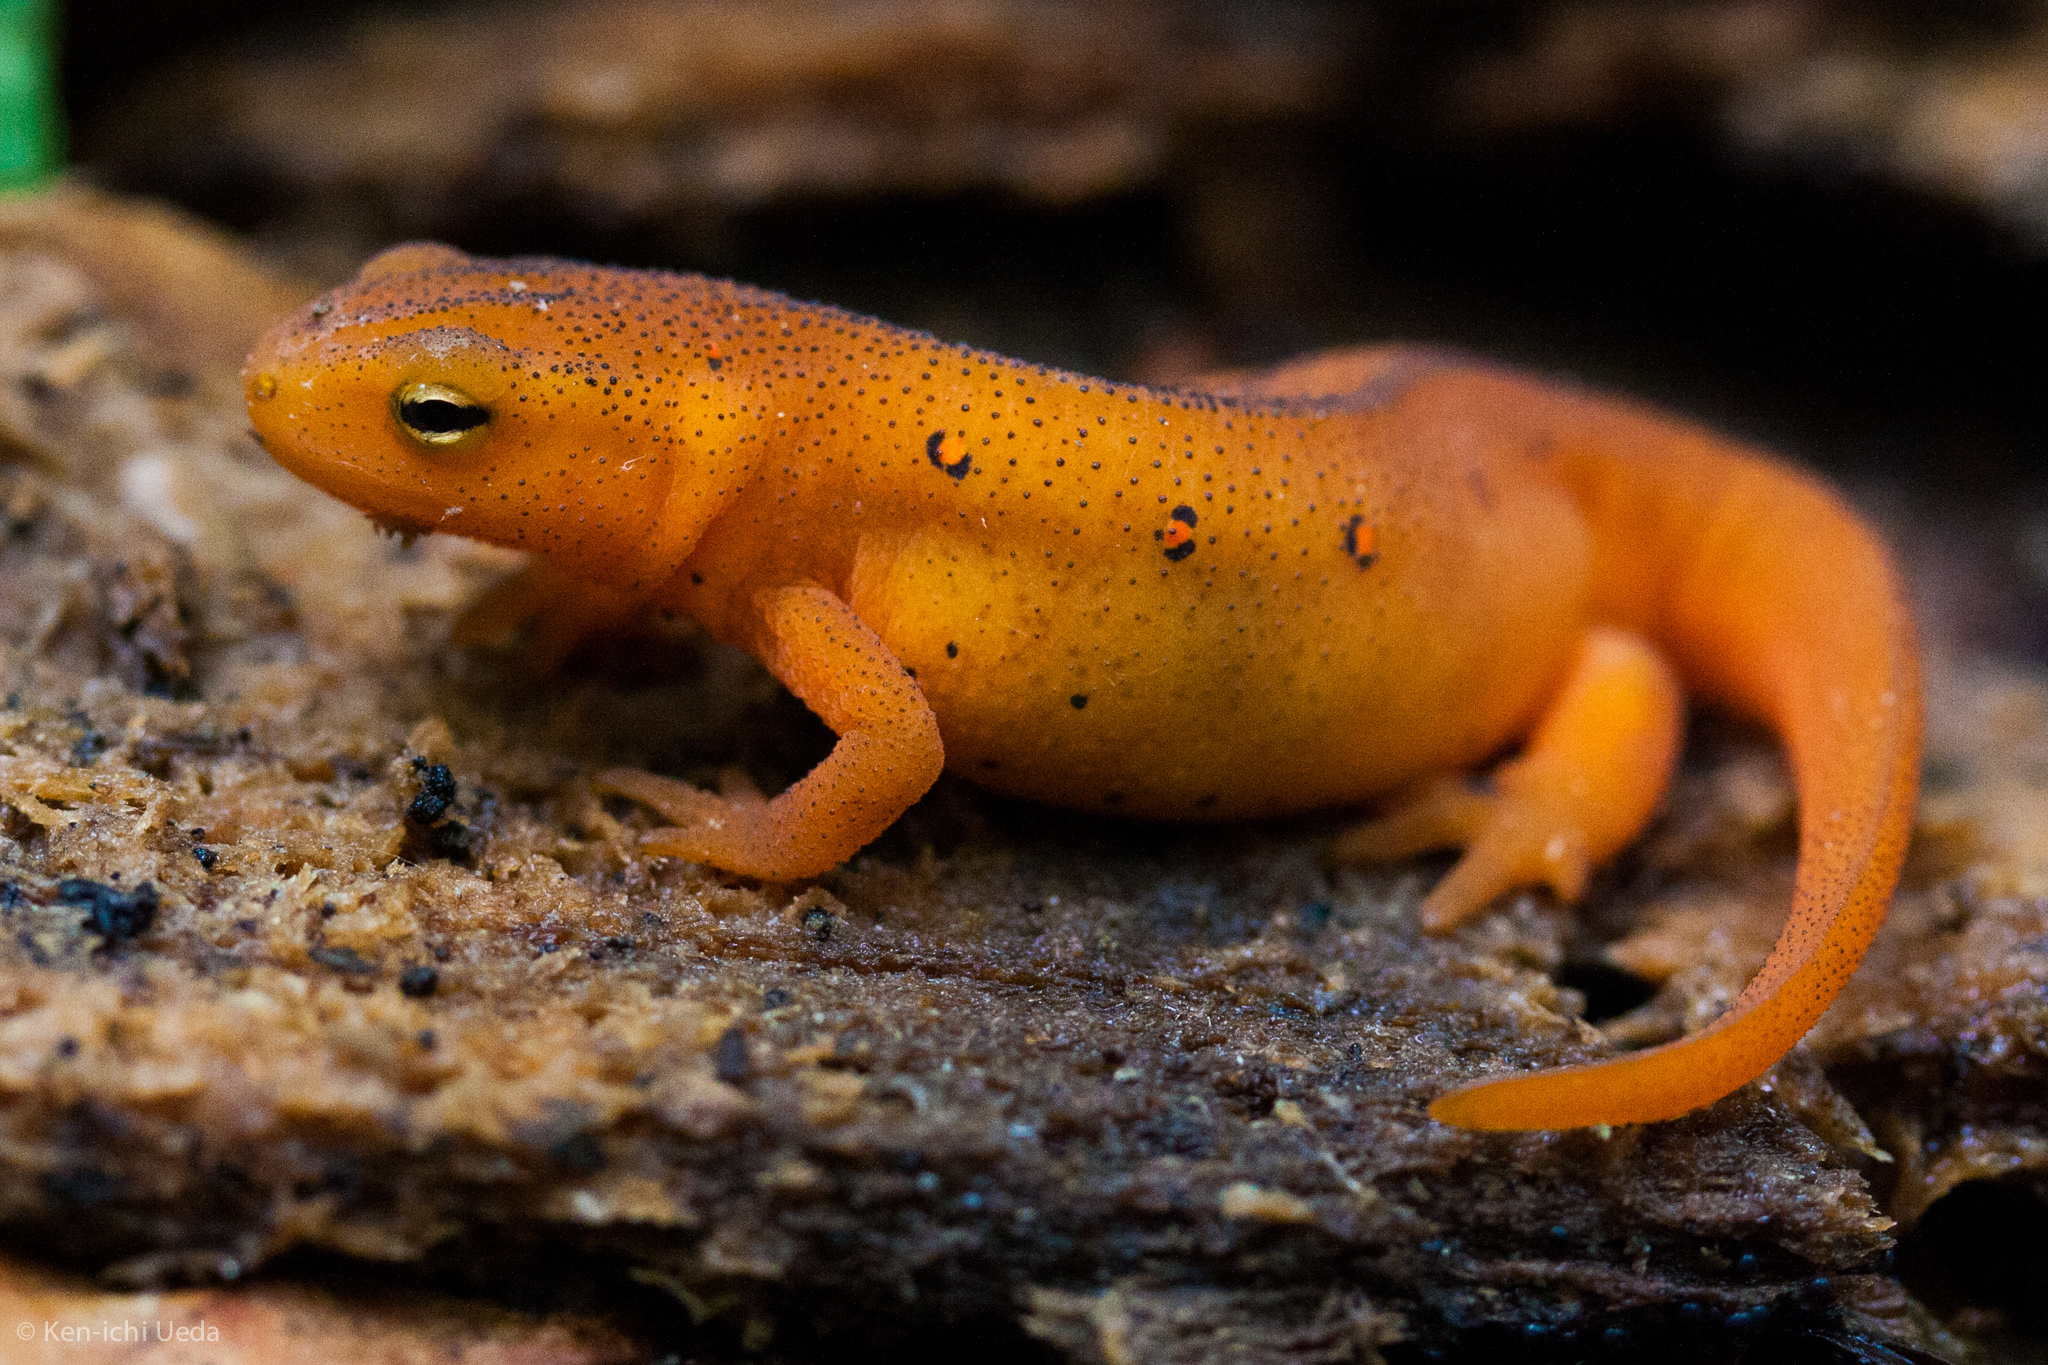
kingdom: Animalia
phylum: Chordata
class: Amphibia
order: Caudata
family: Salamandridae
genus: Notophthalmus
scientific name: Notophthalmus viridescens
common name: Eastern newt
